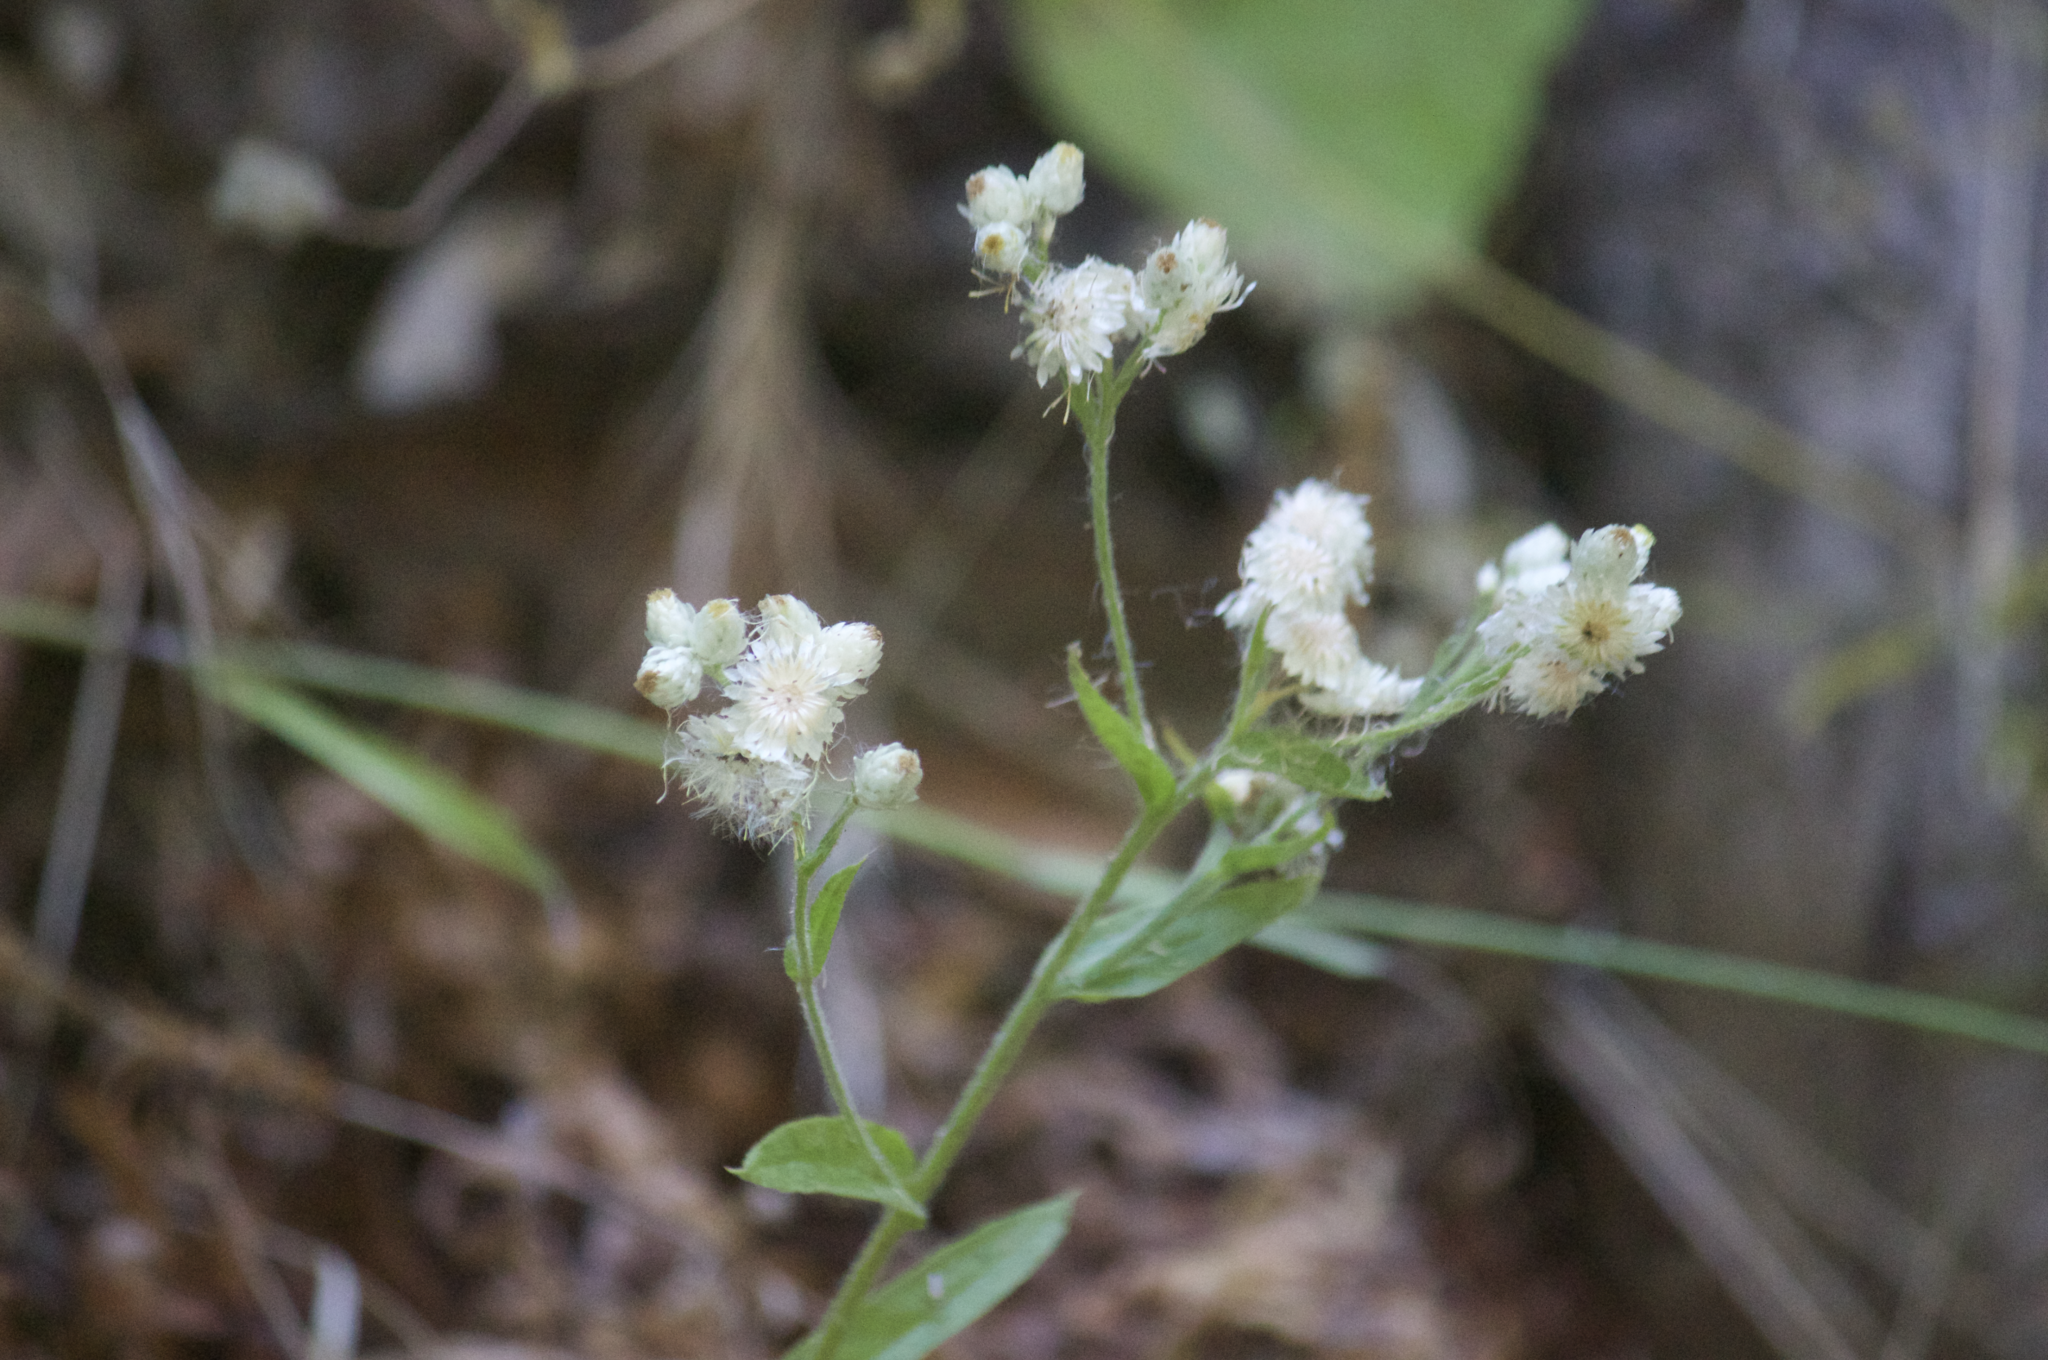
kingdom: Plantae
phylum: Tracheophyta
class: Magnoliopsida
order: Asterales
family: Asteraceae
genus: Pseudognaphalium
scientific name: Pseudognaphalium californicum
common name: California rabbit-tobacco
